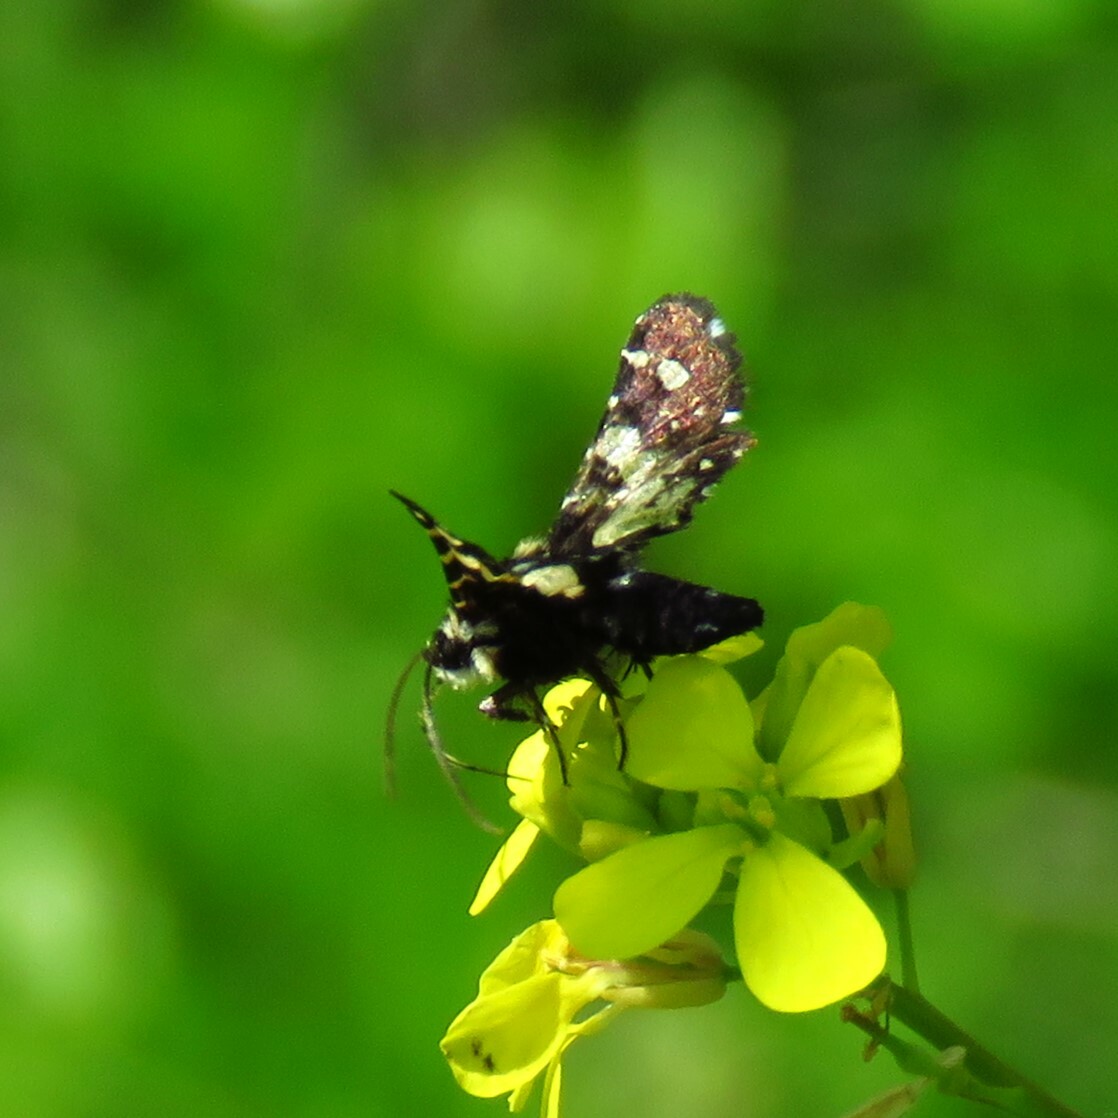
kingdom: Animalia
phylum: Arthropoda
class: Insecta
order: Lepidoptera
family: Thyrididae
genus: Pseudothyris
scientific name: Pseudothyris sepulchralis
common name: Mournful thyris moth
